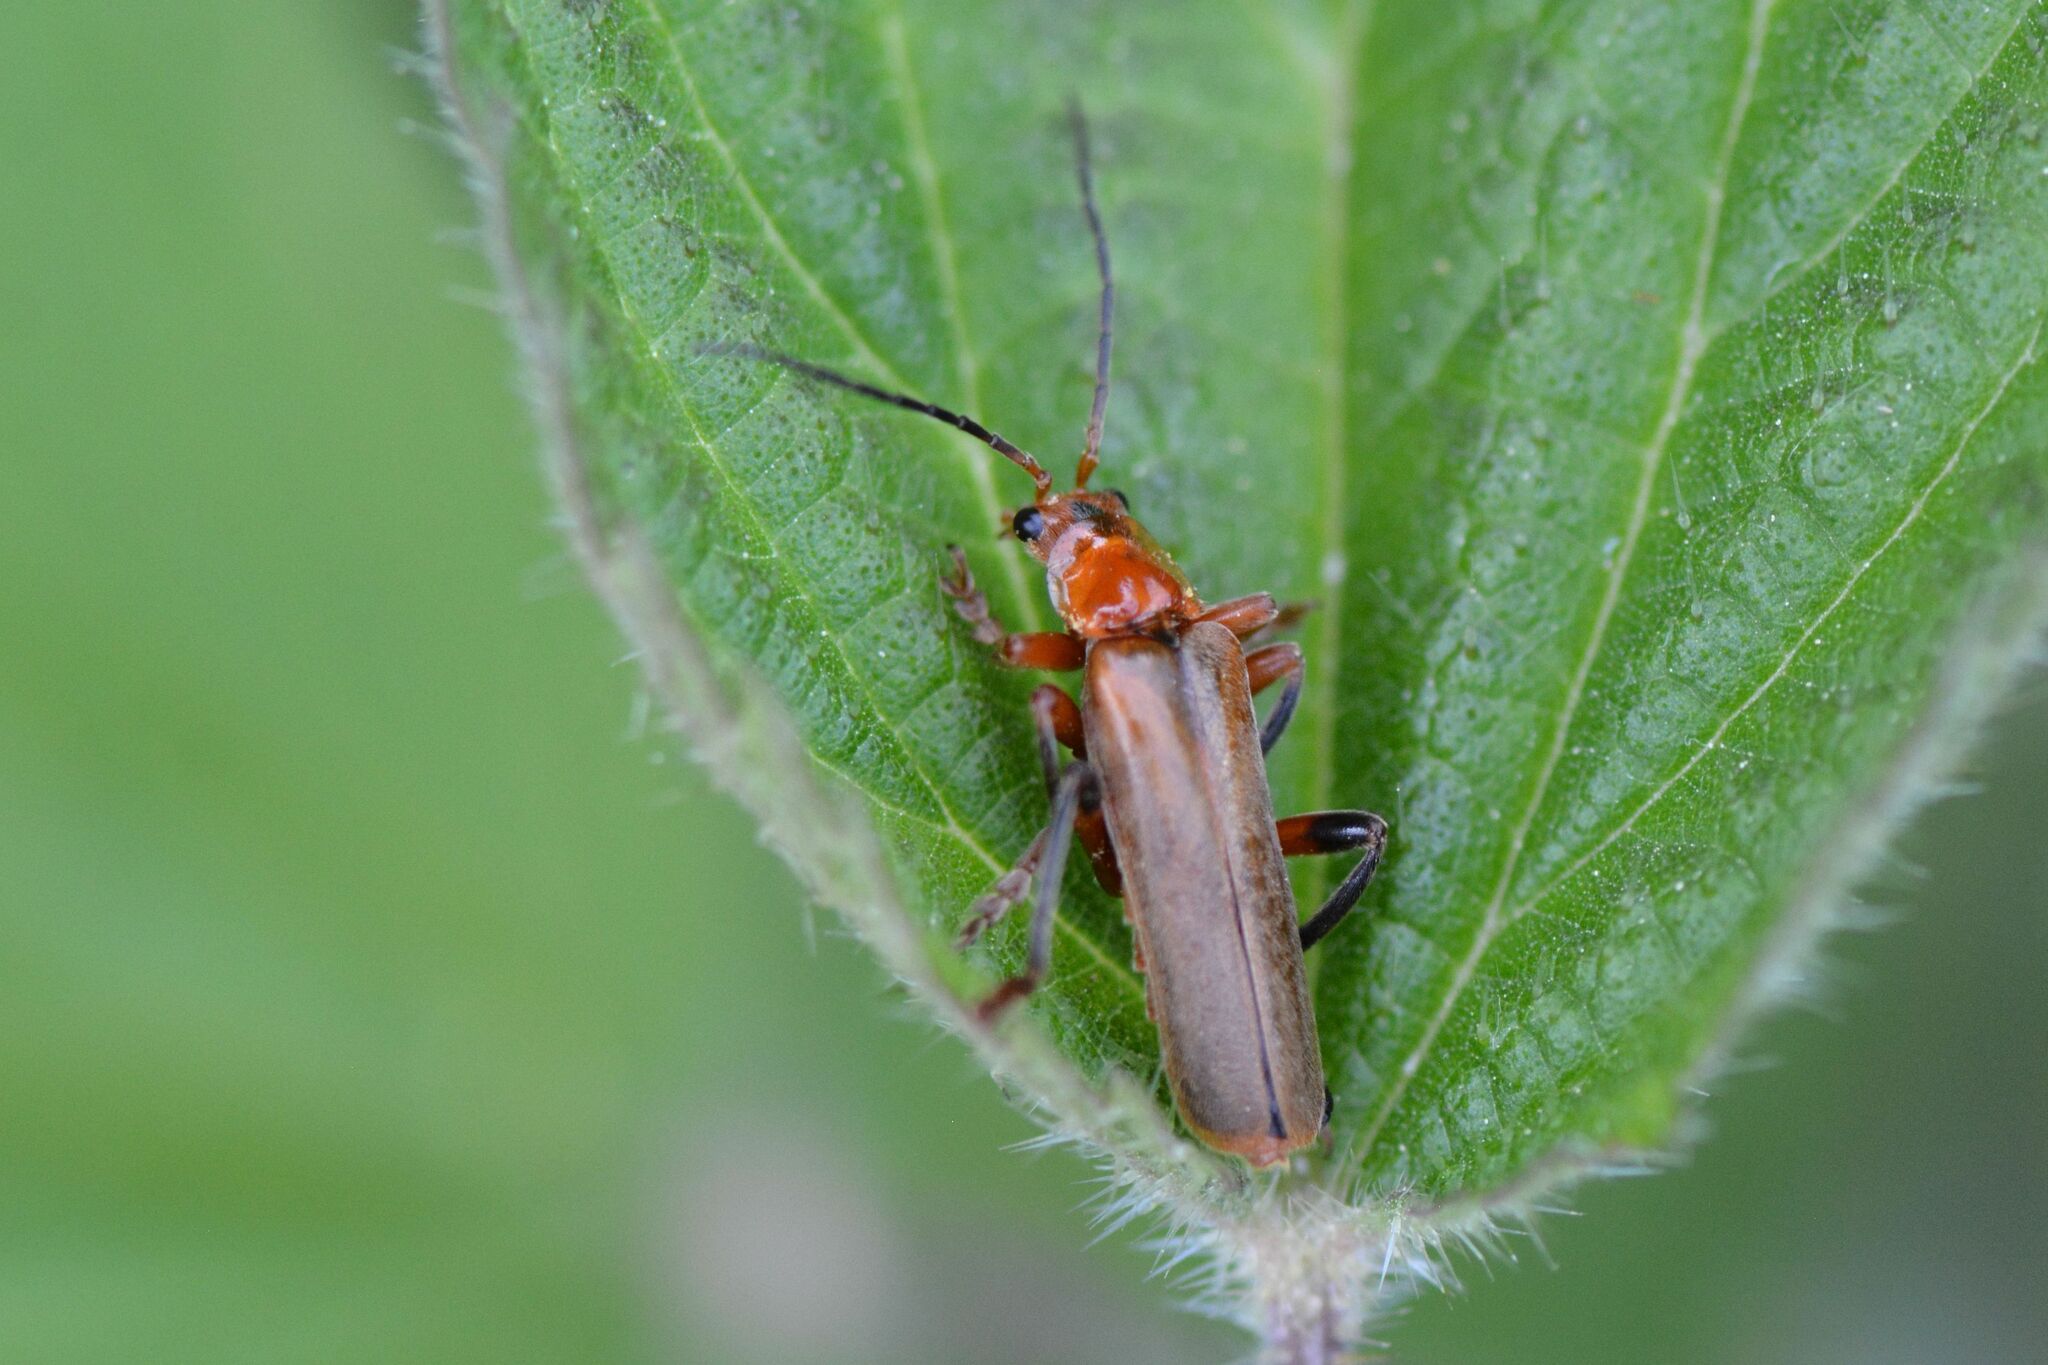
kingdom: Animalia
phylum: Arthropoda
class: Insecta
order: Coleoptera
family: Cantharidae
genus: Cantharis
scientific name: Cantharis livida
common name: Livid soldier beetle
